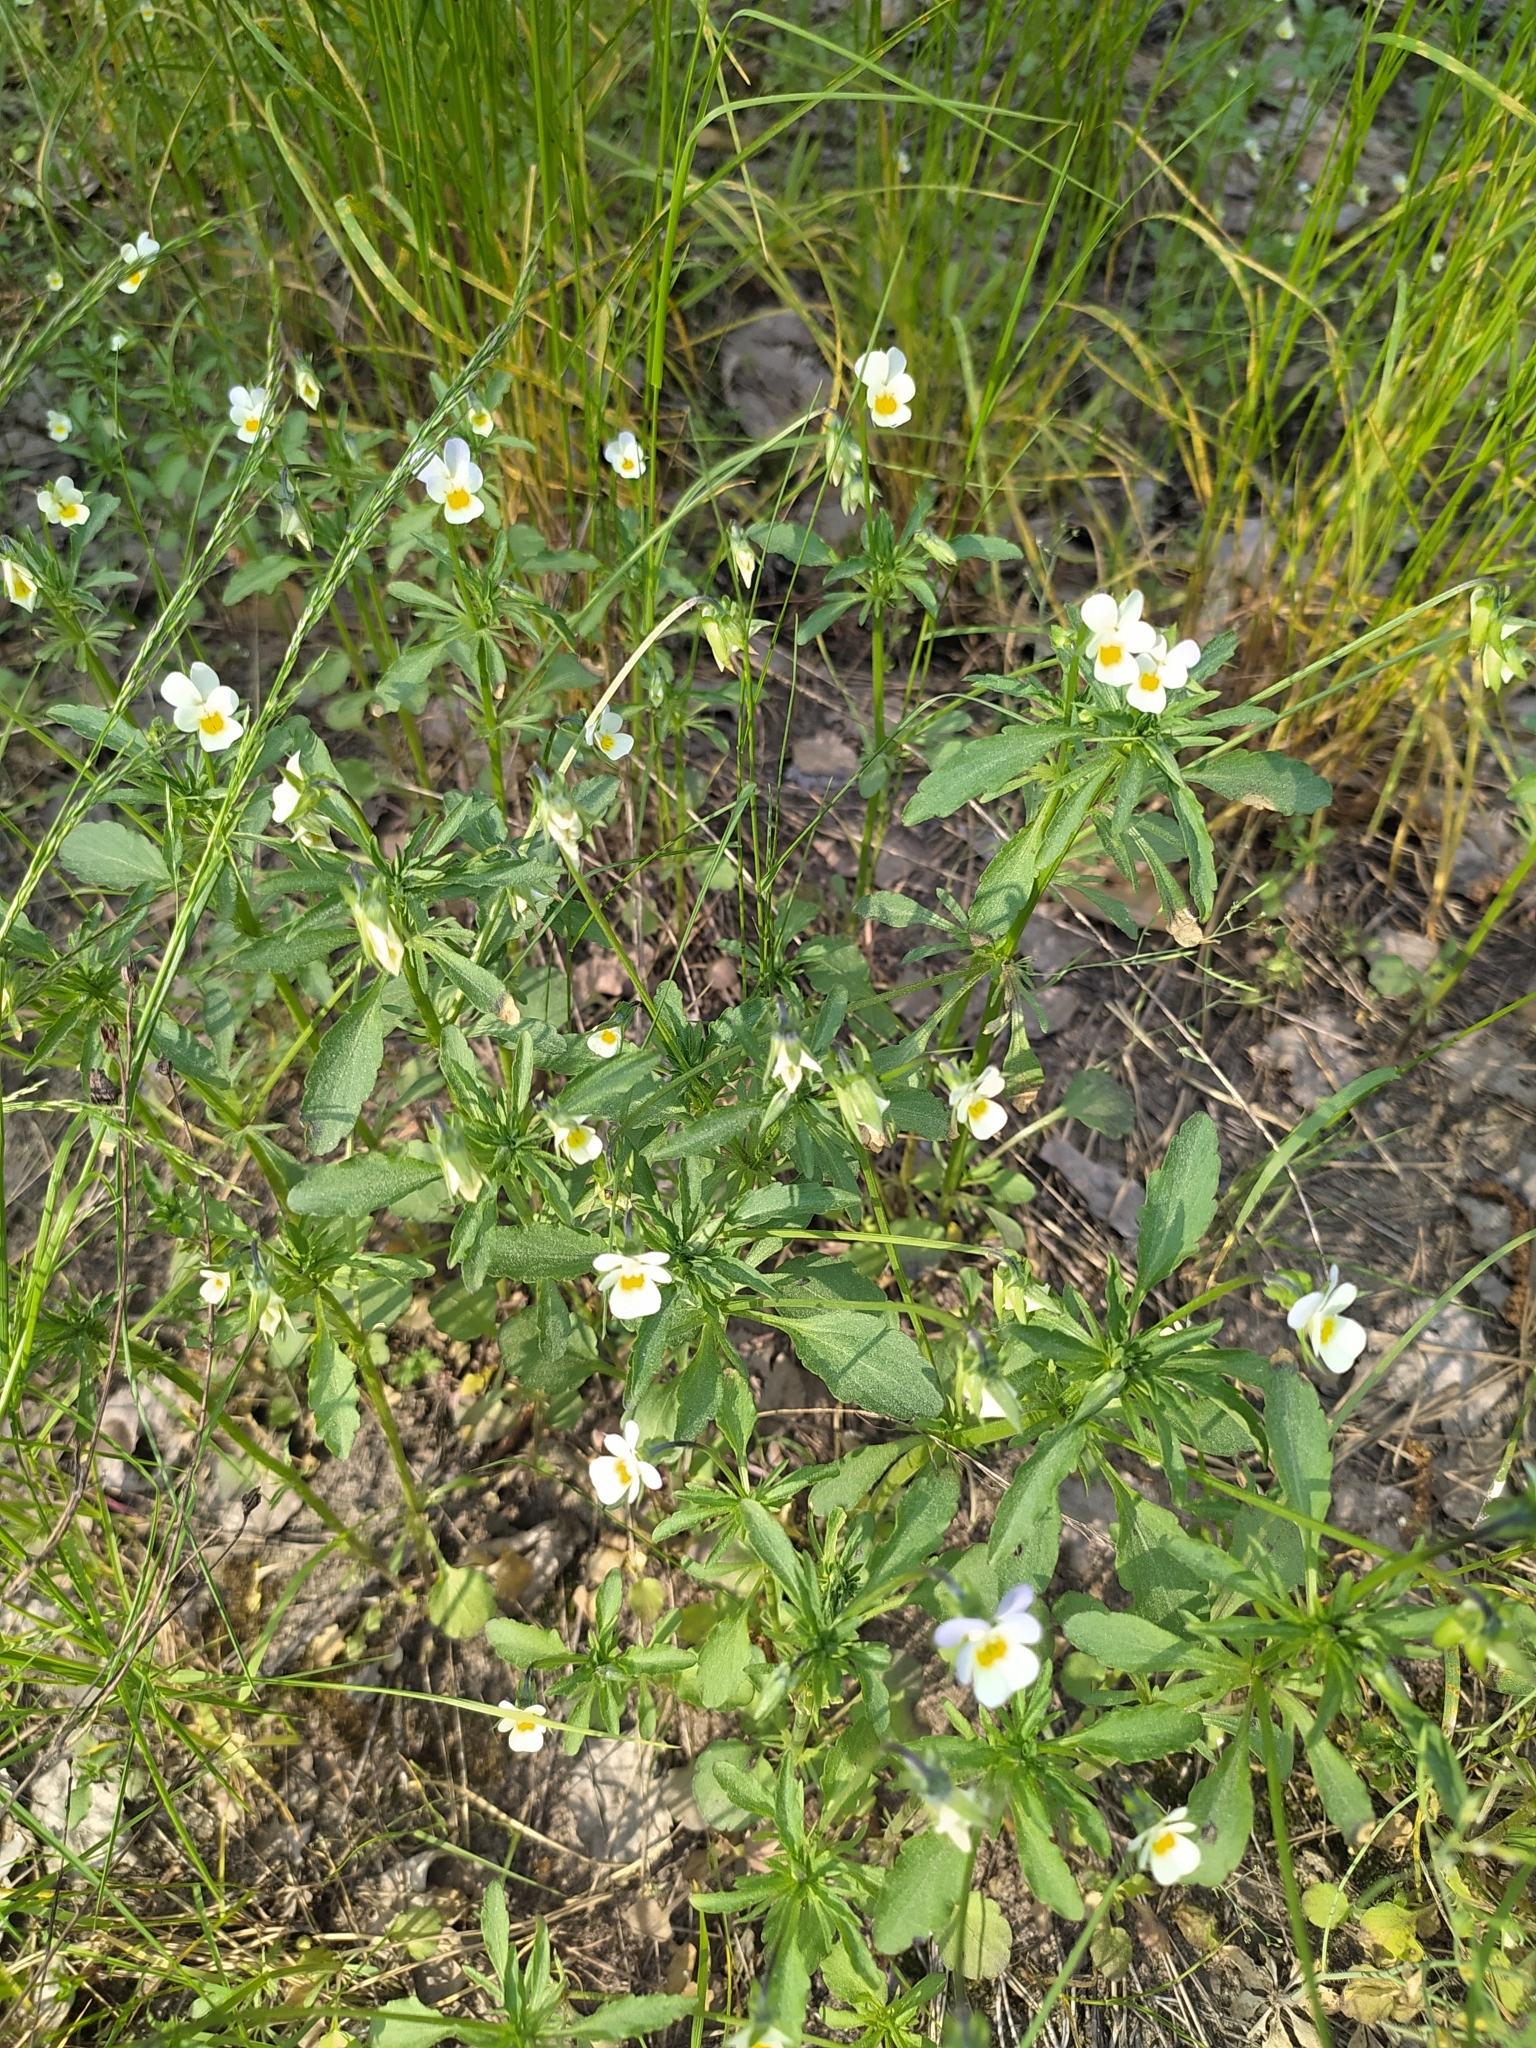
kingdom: Plantae
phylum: Tracheophyta
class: Magnoliopsida
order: Malpighiales
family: Violaceae
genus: Viola
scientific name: Viola arvensis
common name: Field pansy
